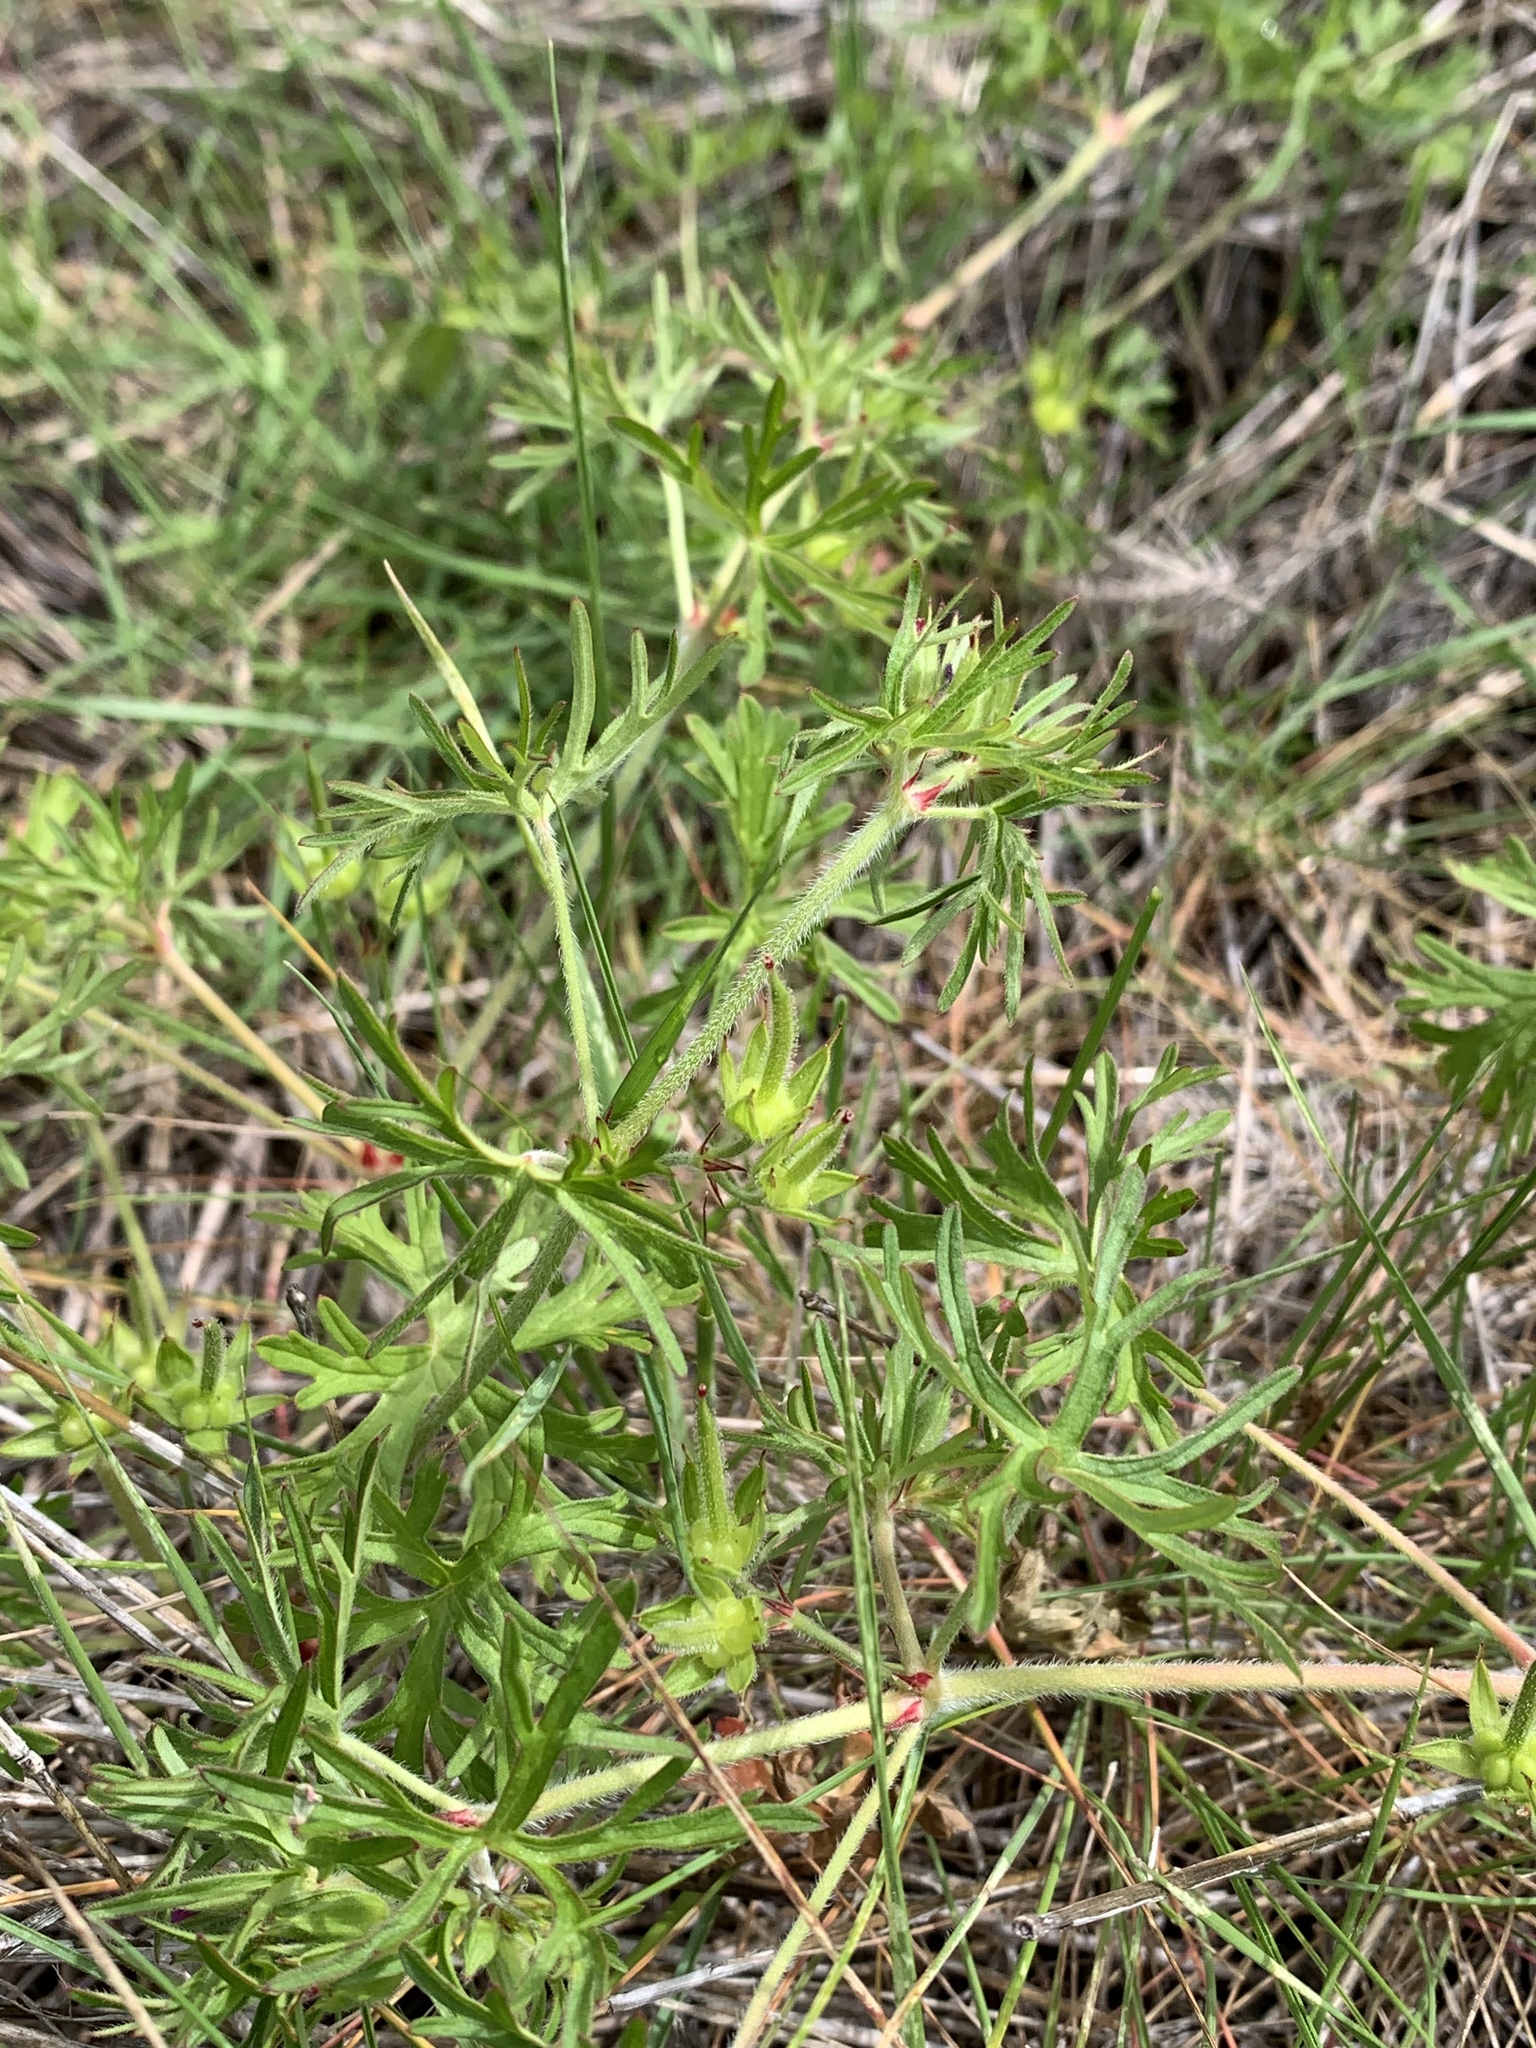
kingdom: Plantae
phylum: Tracheophyta
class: Magnoliopsida
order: Geraniales
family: Geraniaceae
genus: Geranium
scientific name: Geranium dissectum
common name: Cut-leaved crane's-bill
